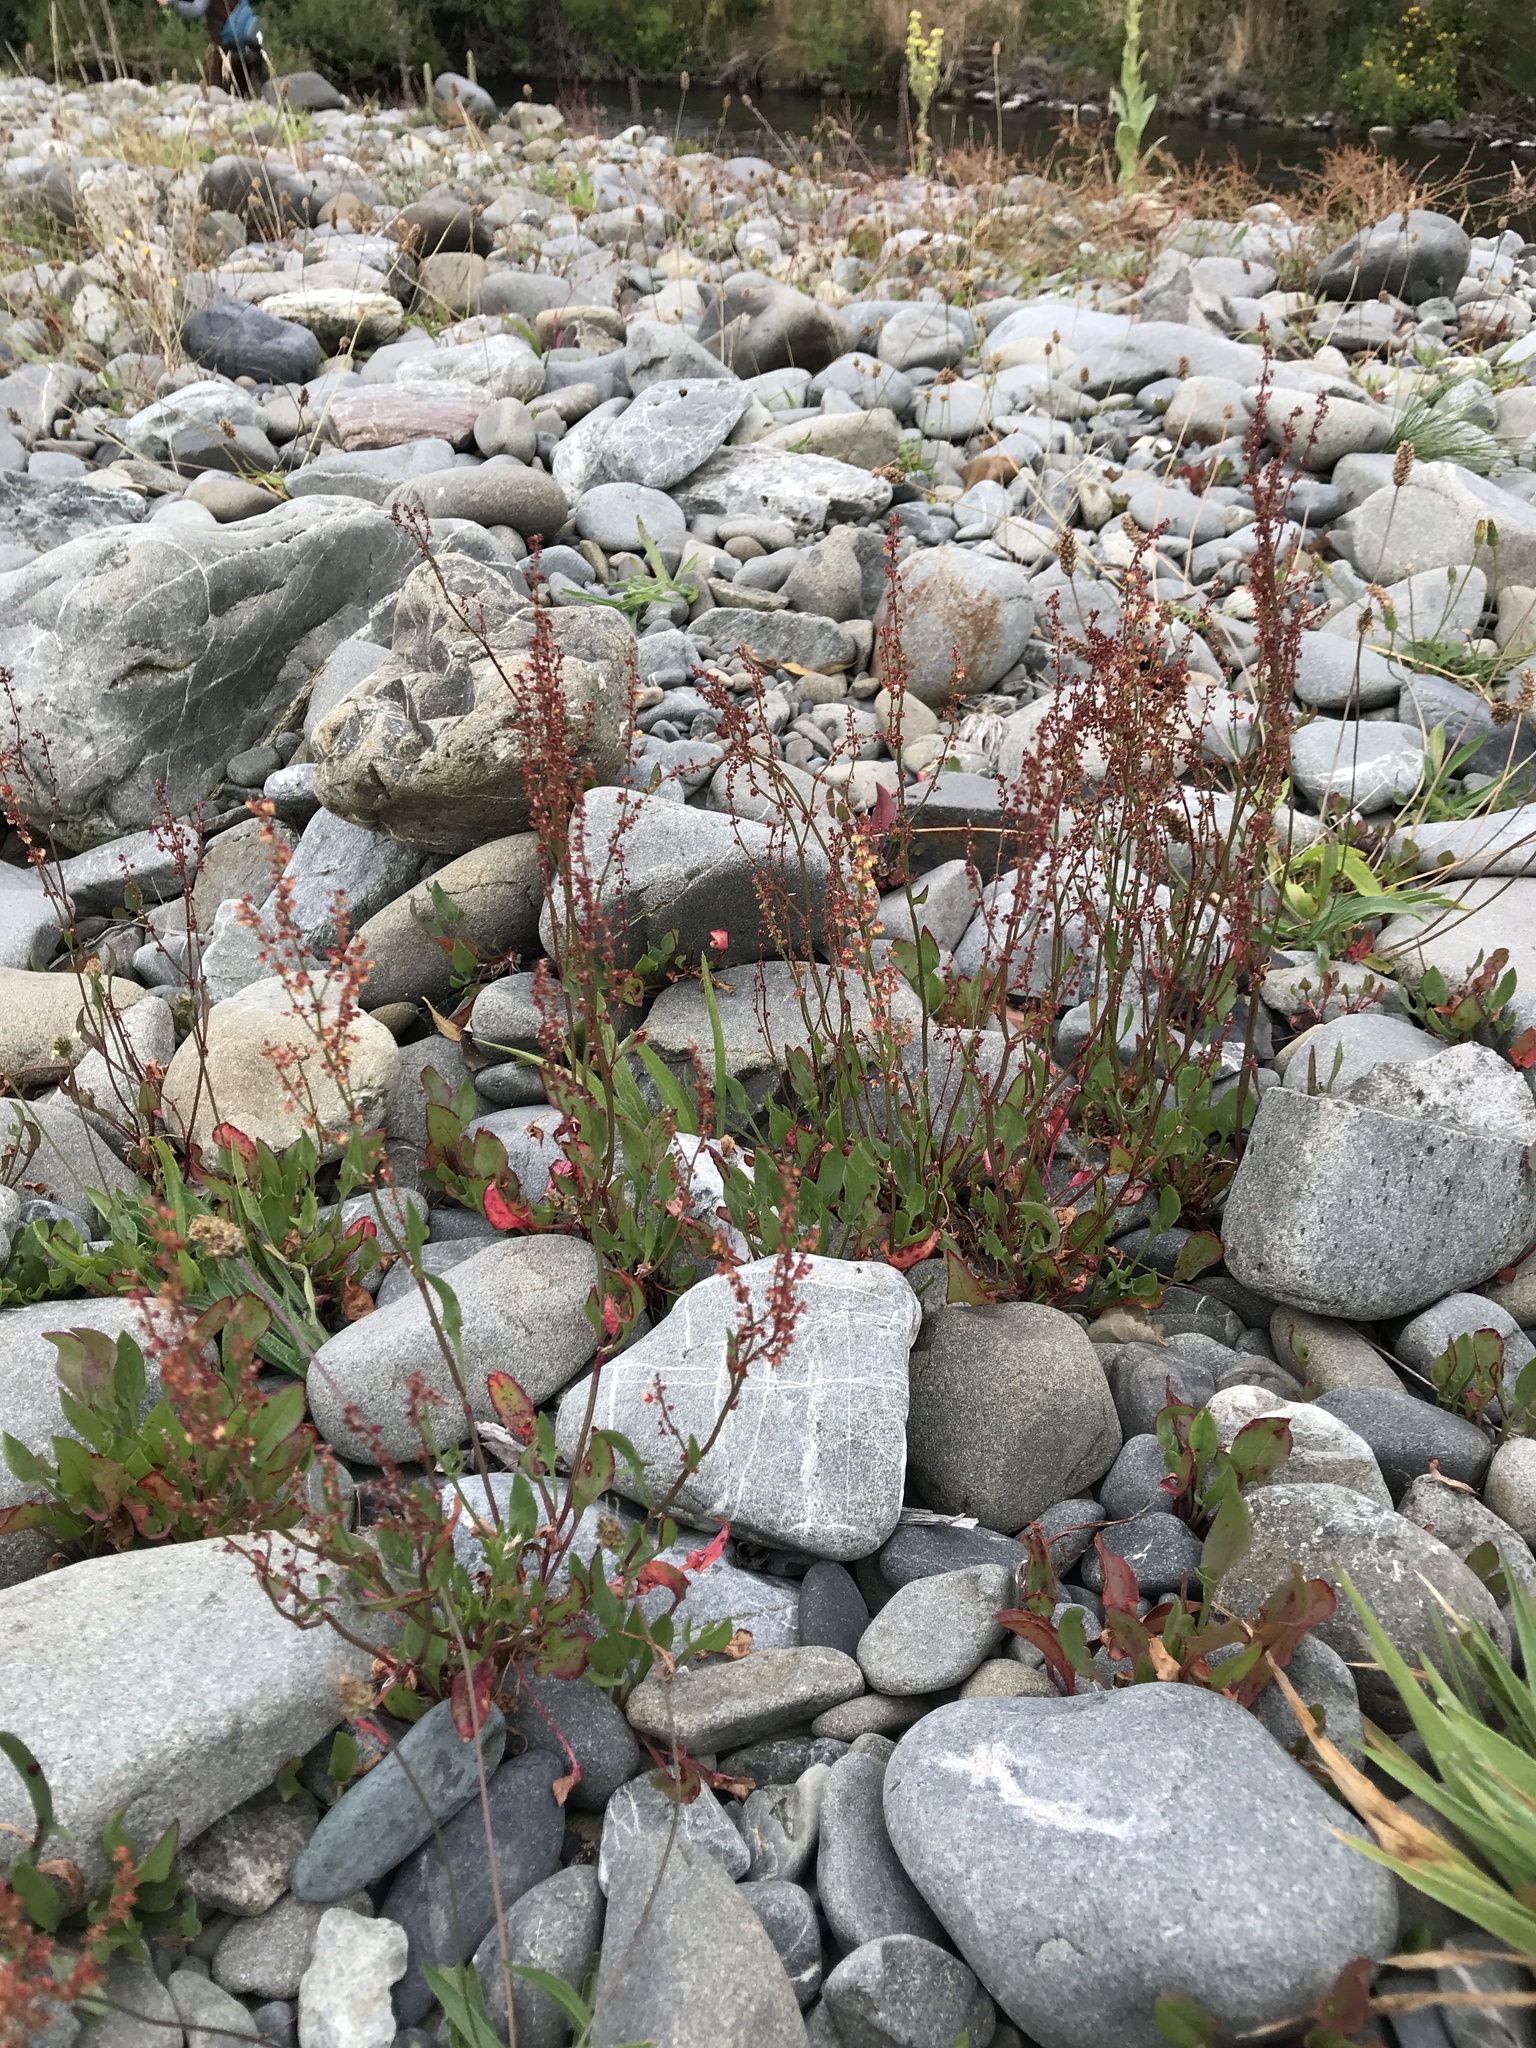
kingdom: Plantae
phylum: Tracheophyta
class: Magnoliopsida
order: Caryophyllales
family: Polygonaceae
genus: Rumex
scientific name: Rumex acetosella
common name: Common sheep sorrel
